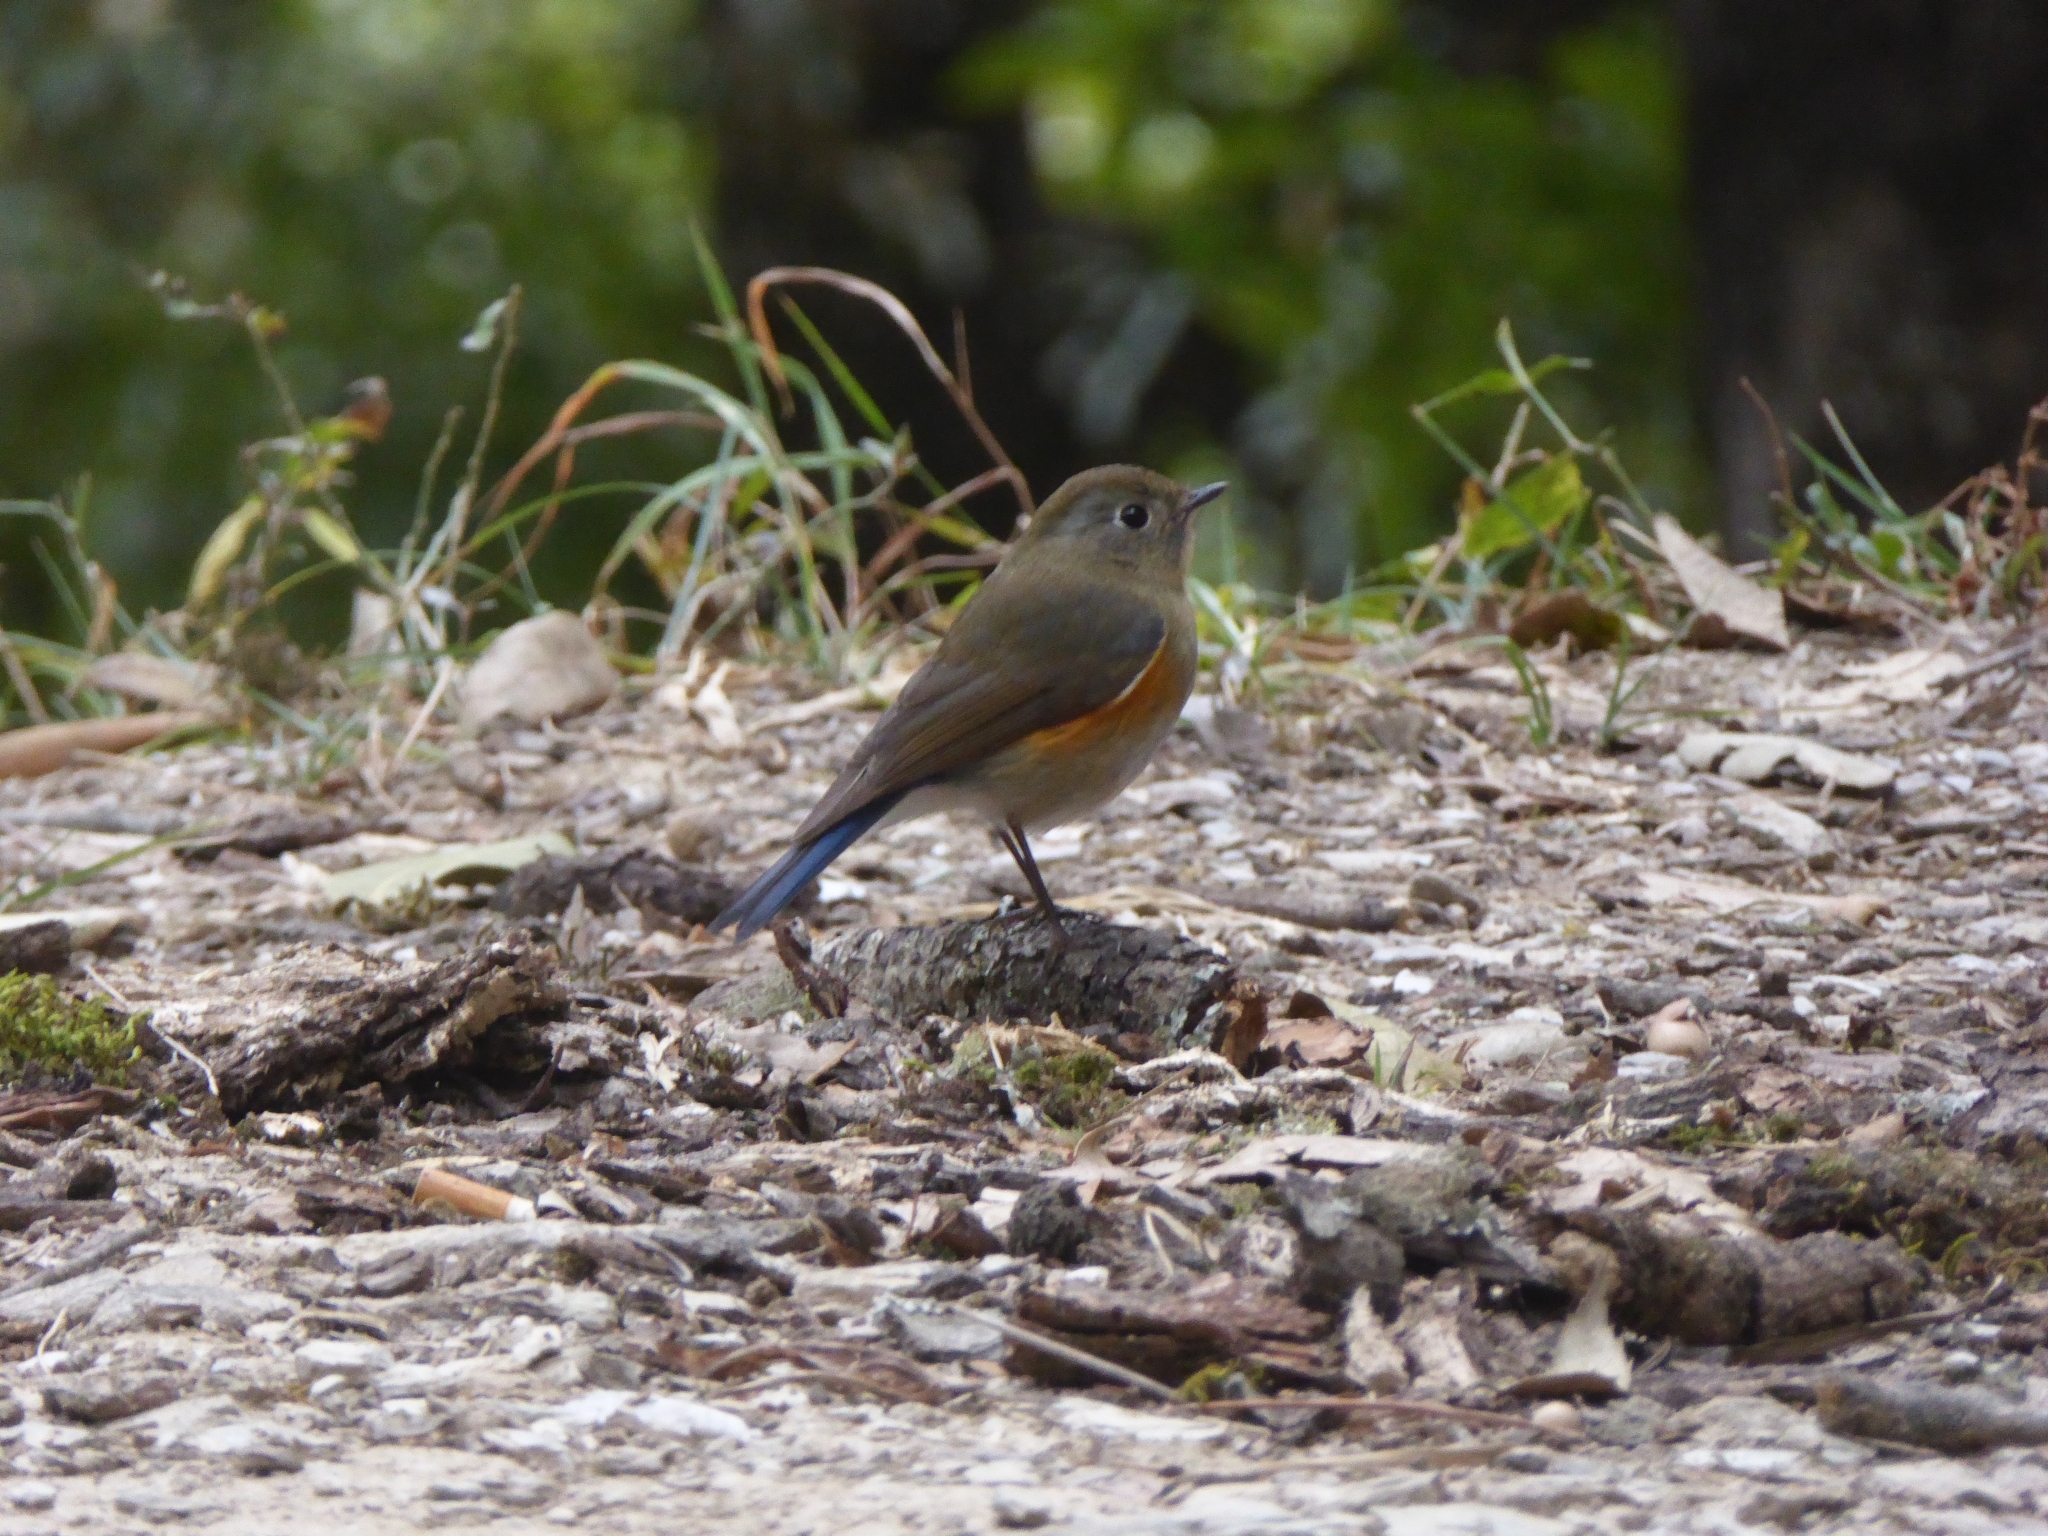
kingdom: Animalia
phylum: Chordata
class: Aves
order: Passeriformes
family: Muscicapidae
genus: Tarsiger
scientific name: Tarsiger rufilatus
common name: Himalayan bluetail
